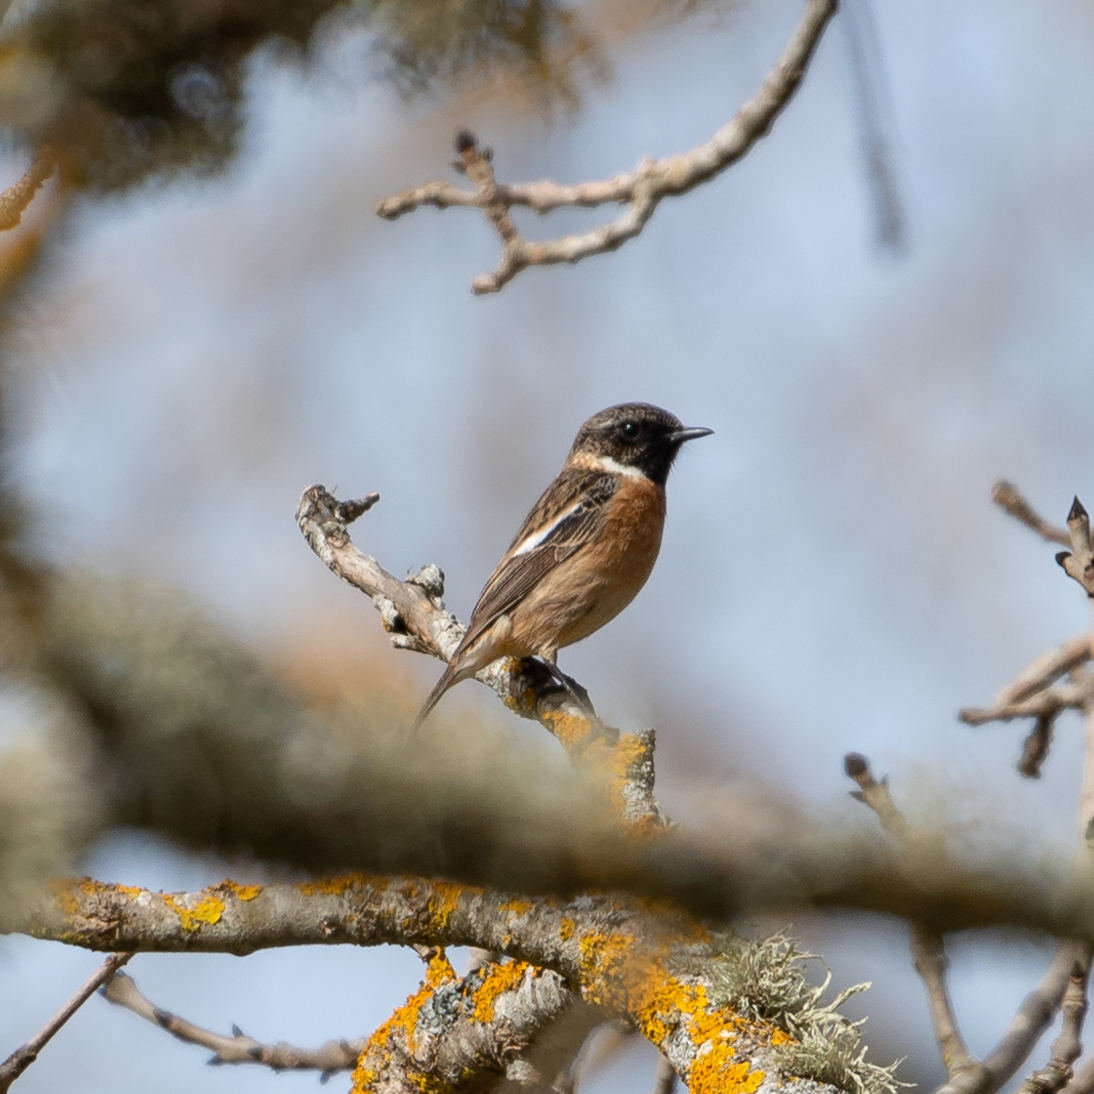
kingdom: Animalia
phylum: Chordata
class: Aves
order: Passeriformes
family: Muscicapidae
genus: Saxicola
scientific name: Saxicola rubicola
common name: European stonechat
